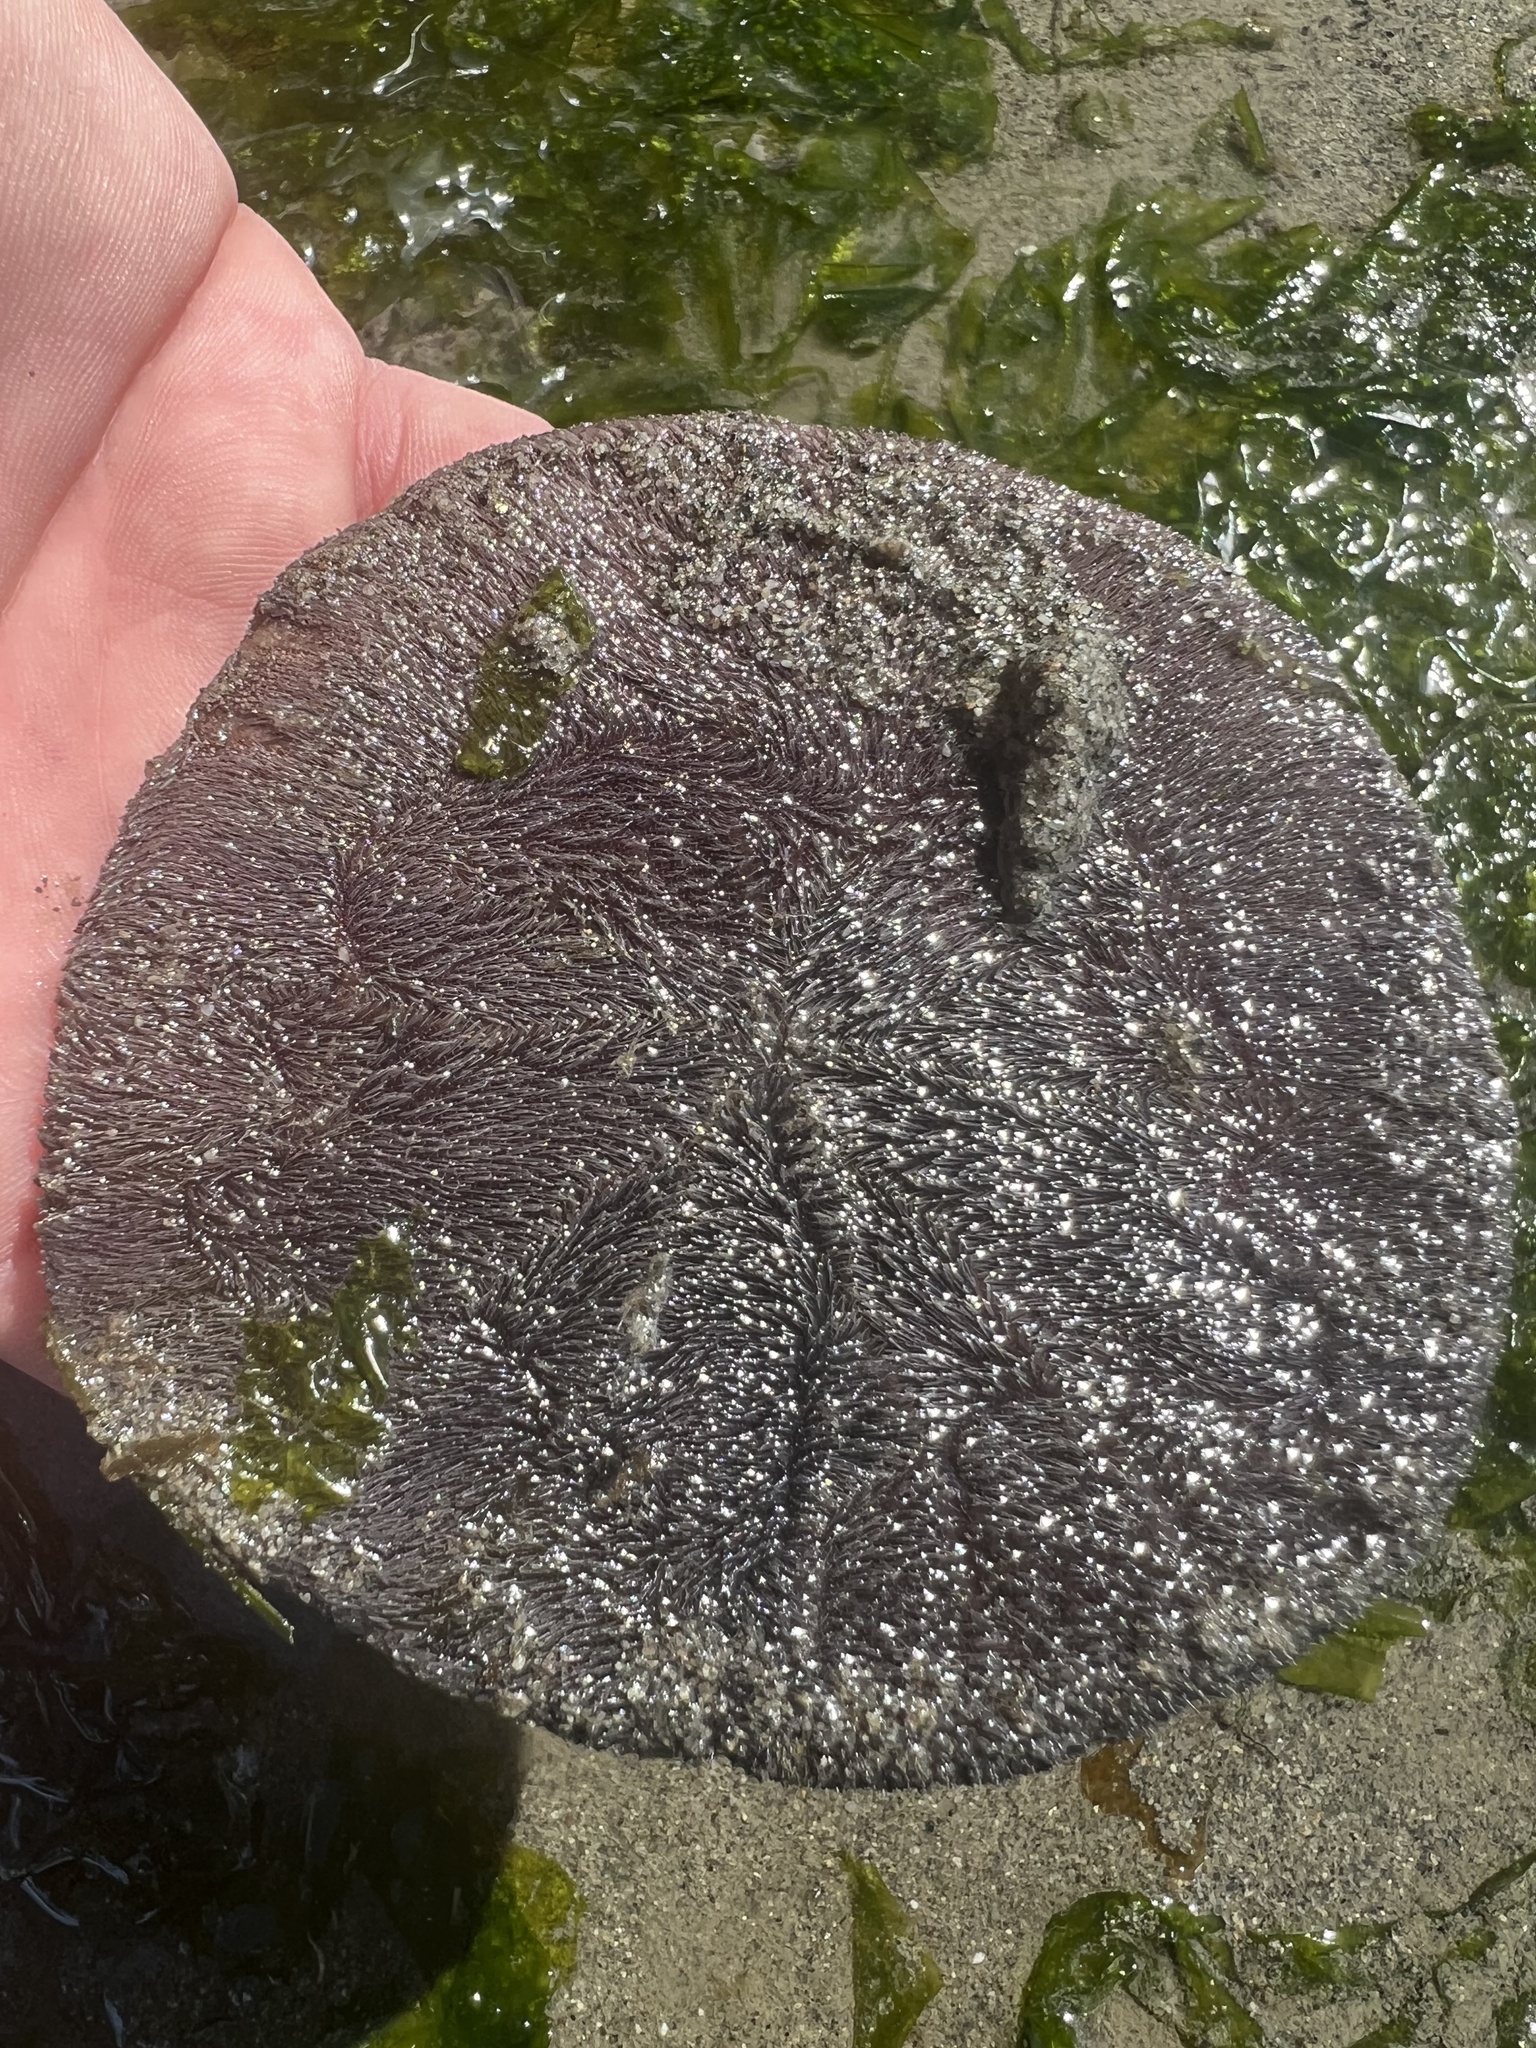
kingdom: Animalia
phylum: Echinodermata
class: Echinoidea
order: Echinolampadacea
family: Dendrasteridae
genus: Dendraster
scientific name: Dendraster excentricus
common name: Eccentric sand dollar sea urchin
